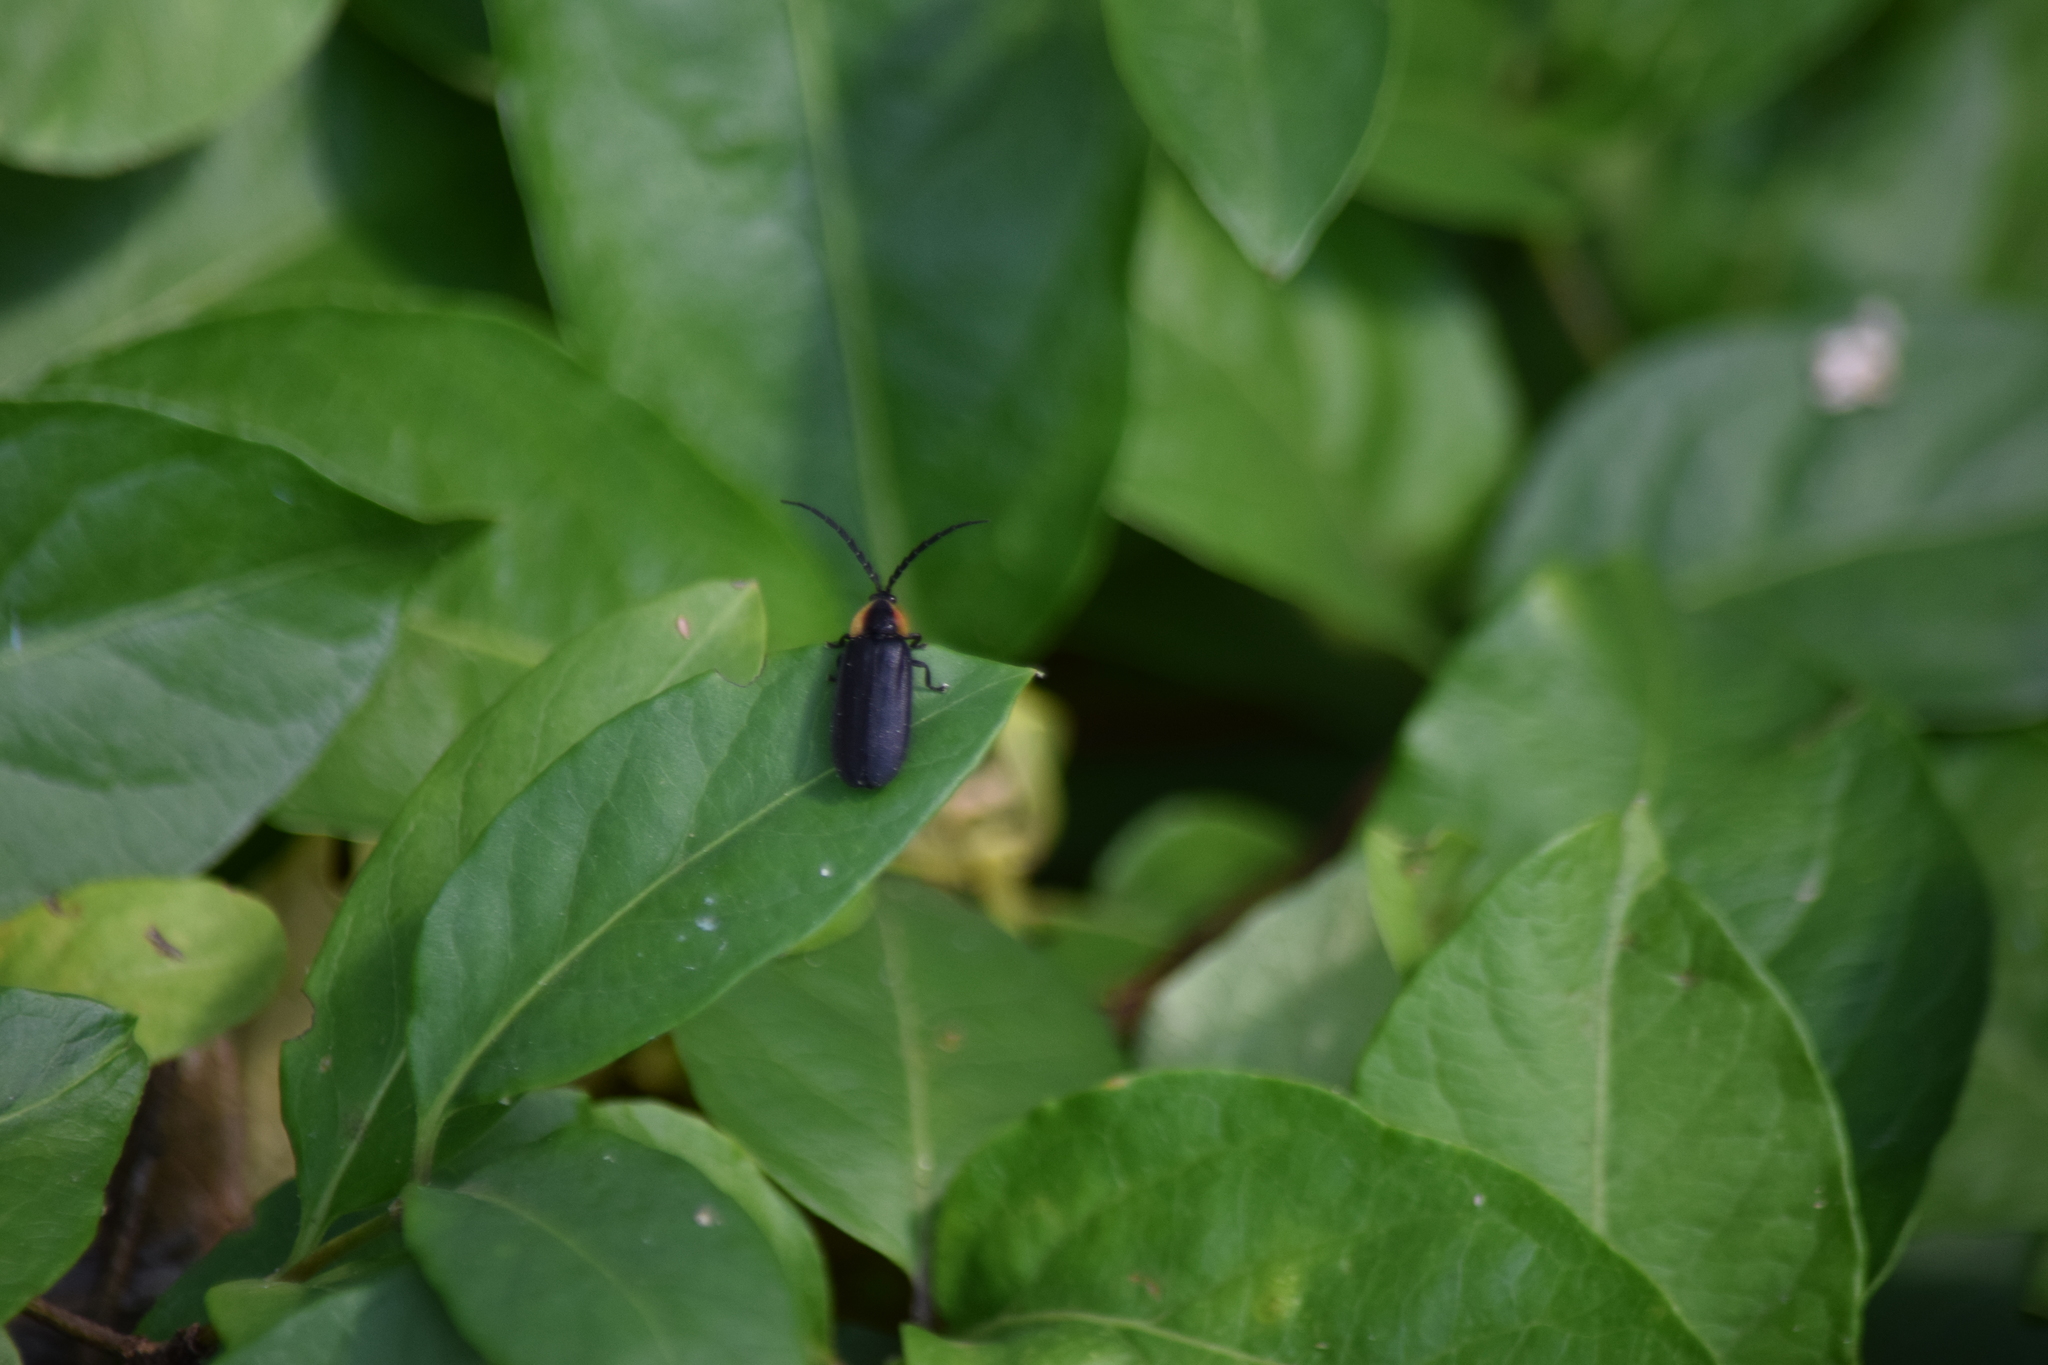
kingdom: Animalia
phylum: Arthropoda
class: Insecta
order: Coleoptera
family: Lampyridae
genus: Lucidota
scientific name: Lucidota atra
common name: Black firefly
